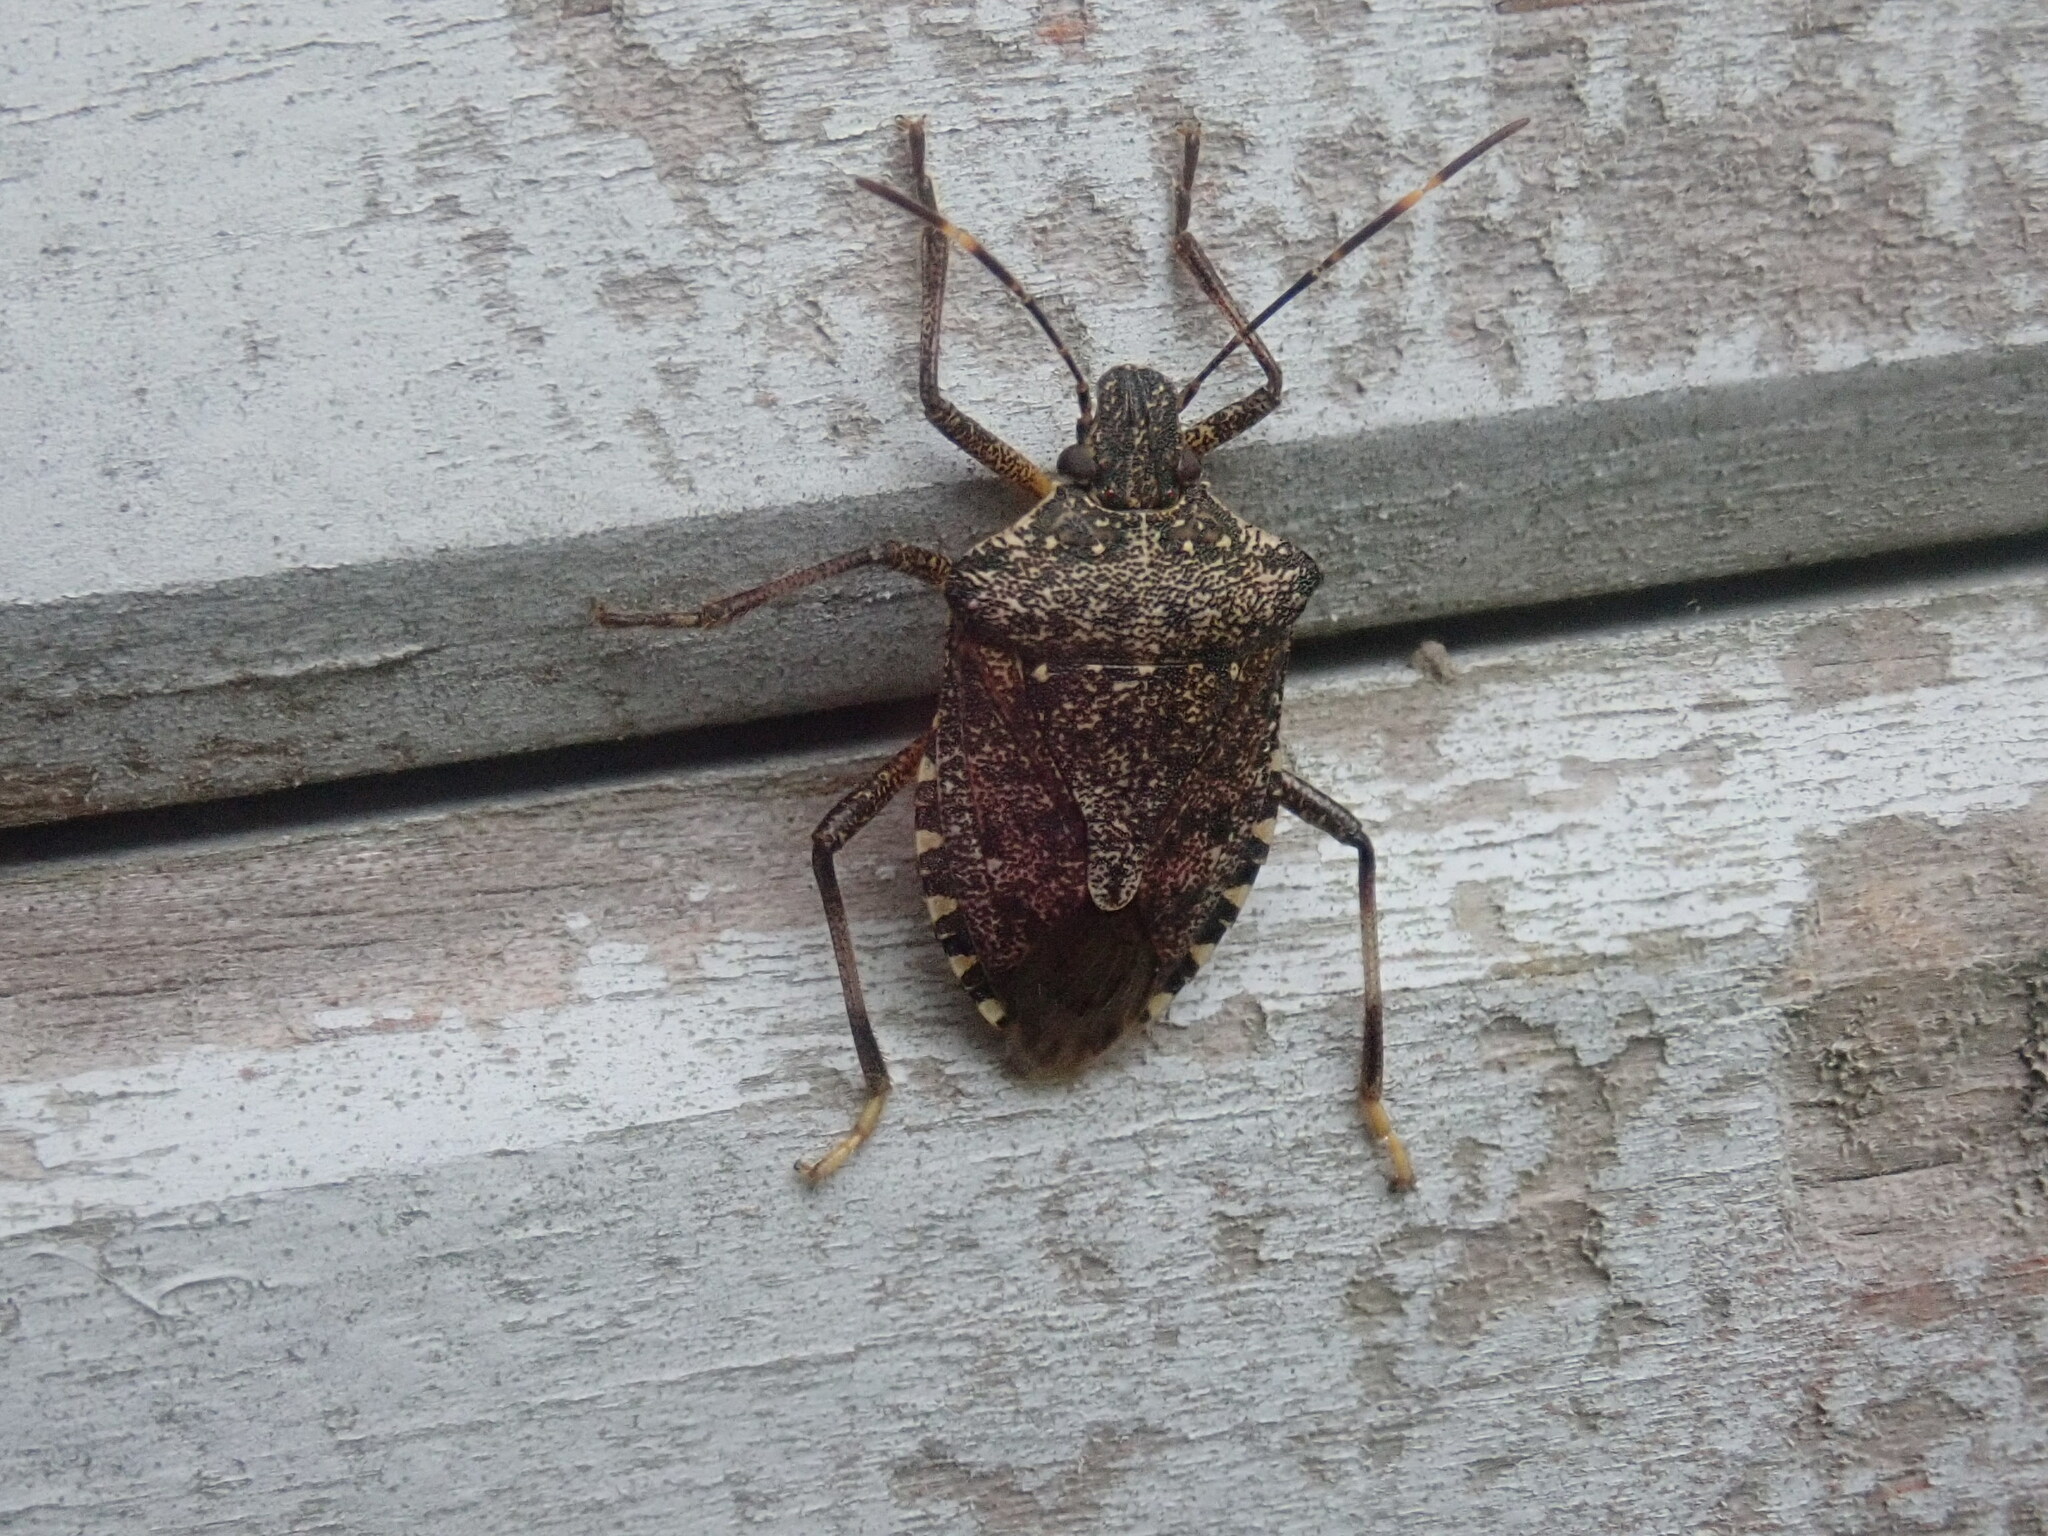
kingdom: Animalia
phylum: Arthropoda
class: Insecta
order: Hemiptera
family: Pentatomidae
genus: Halyomorpha
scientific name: Halyomorpha halys
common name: Brown marmorated stink bug
